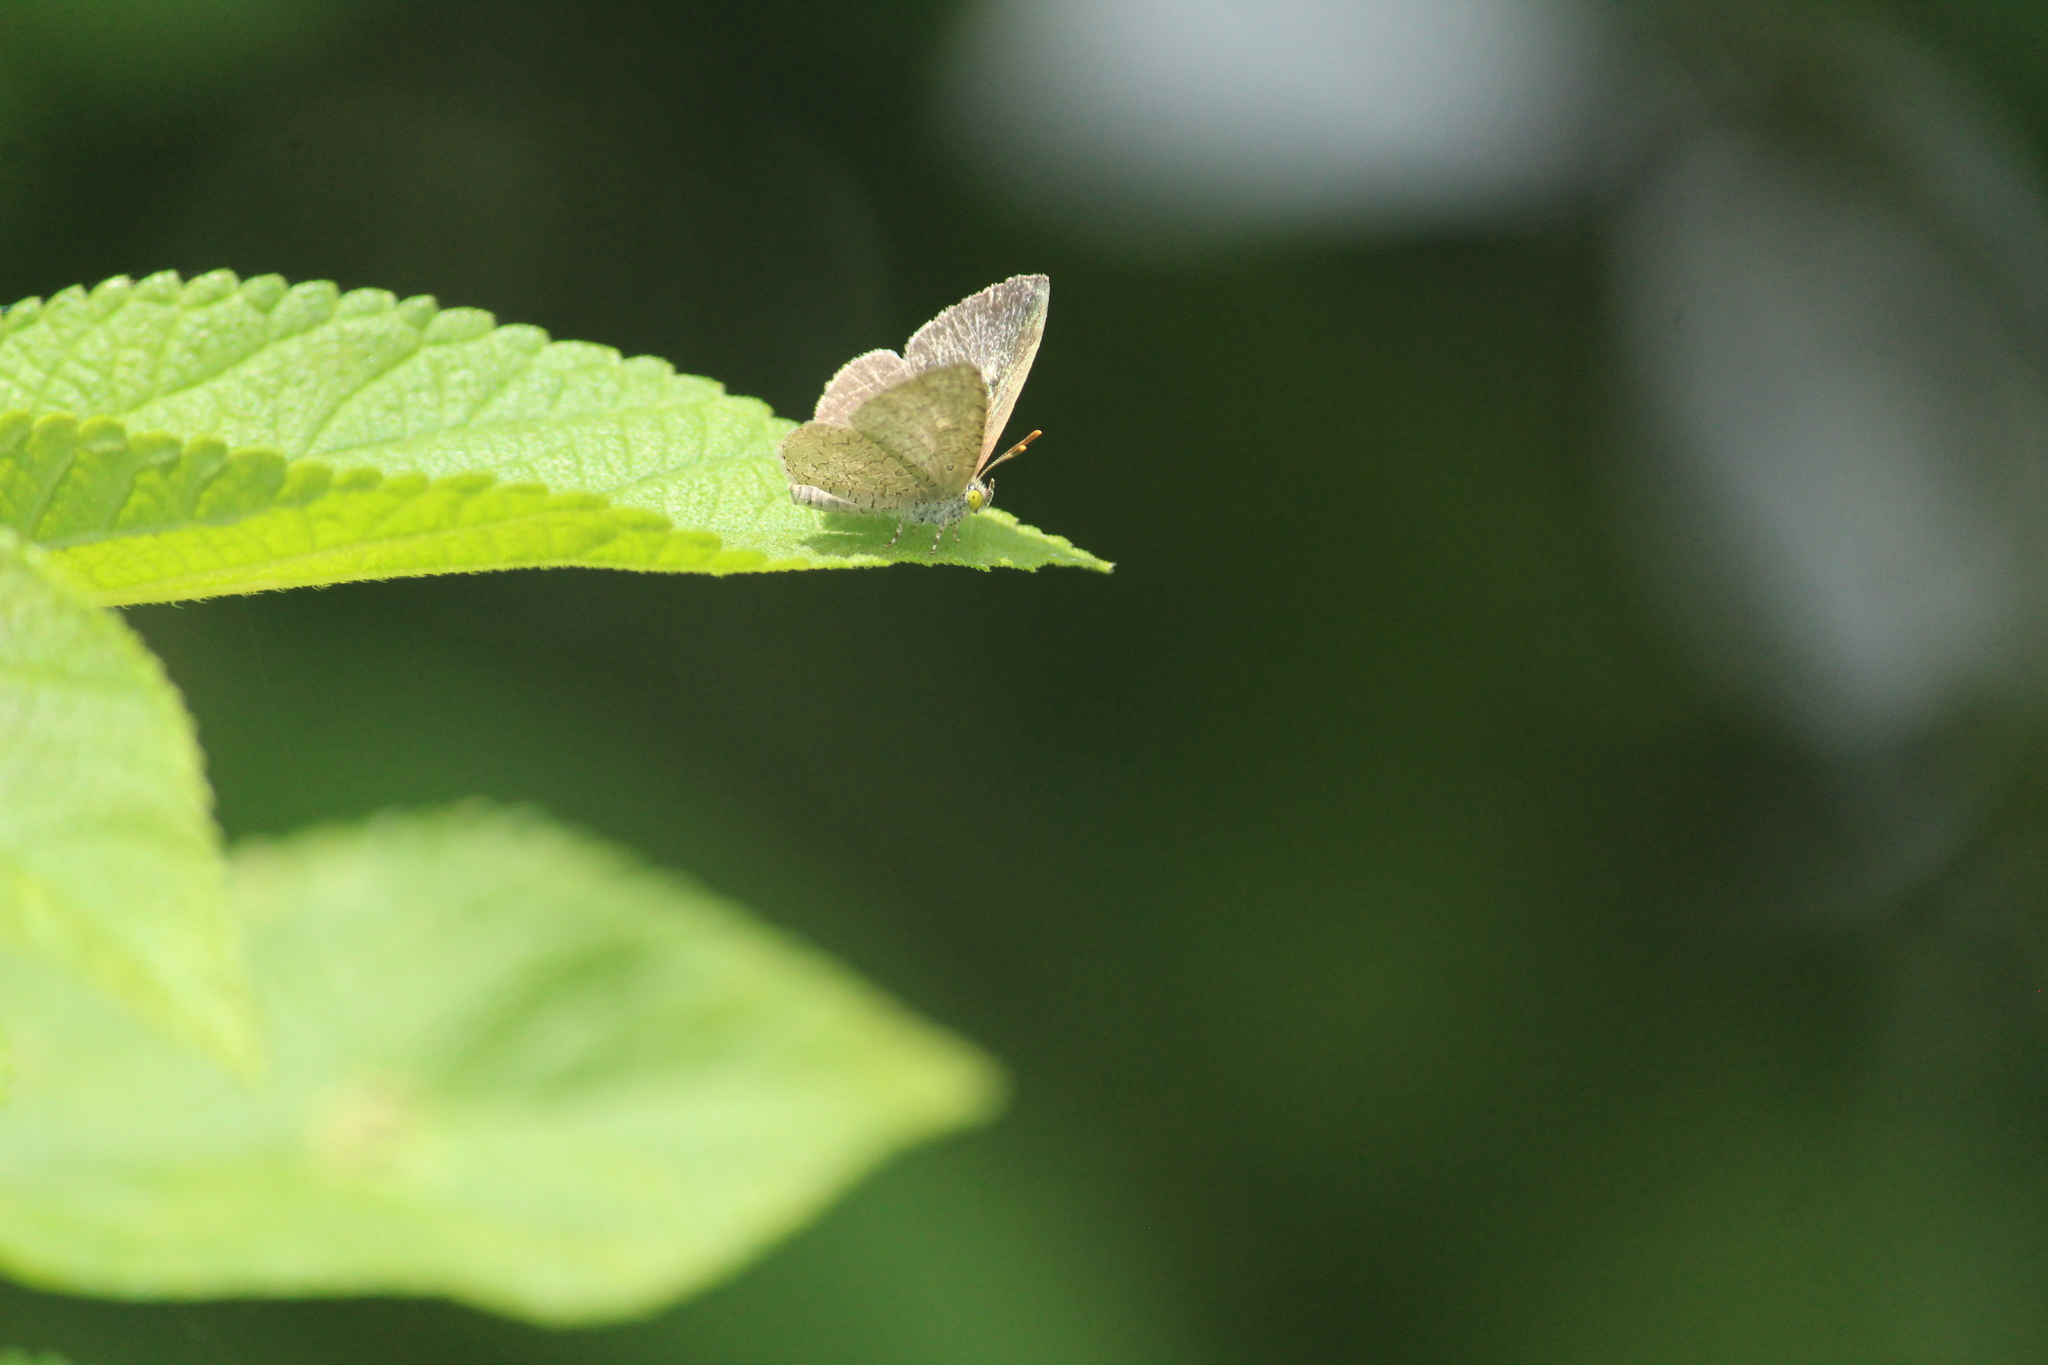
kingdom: Animalia
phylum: Arthropoda
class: Insecta
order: Lepidoptera
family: Lycaenidae
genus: Spalgis
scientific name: Spalgis epius
